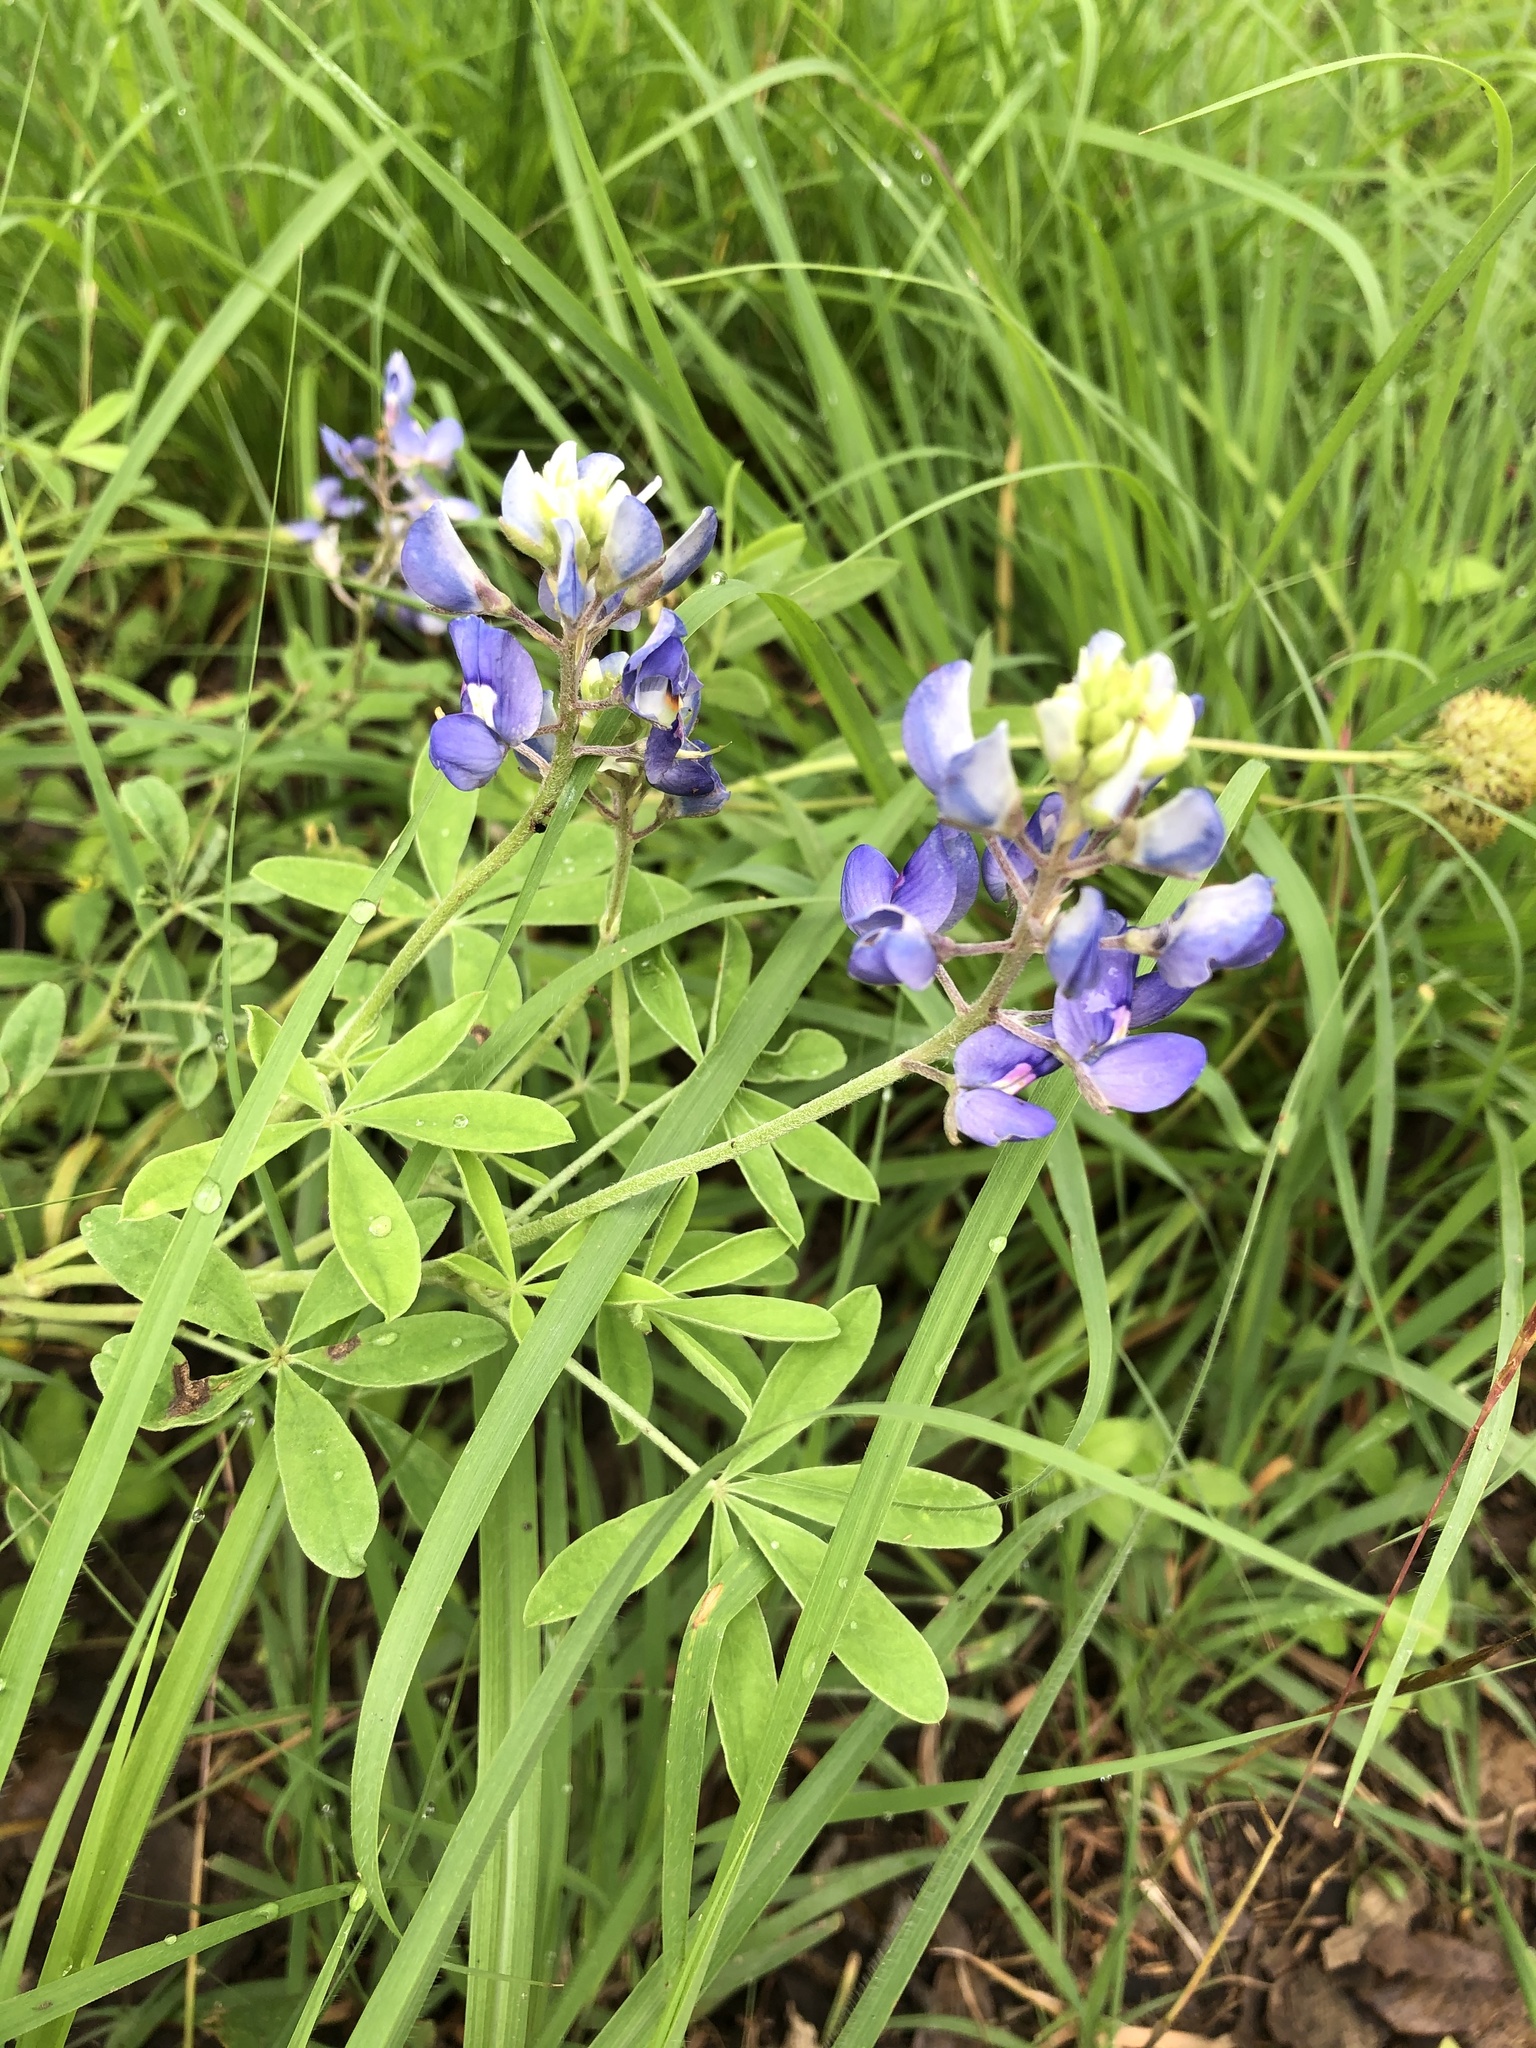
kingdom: Plantae
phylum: Tracheophyta
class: Magnoliopsida
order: Fabales
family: Fabaceae
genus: Lupinus
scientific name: Lupinus texensis
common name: Texas bluebonnet
